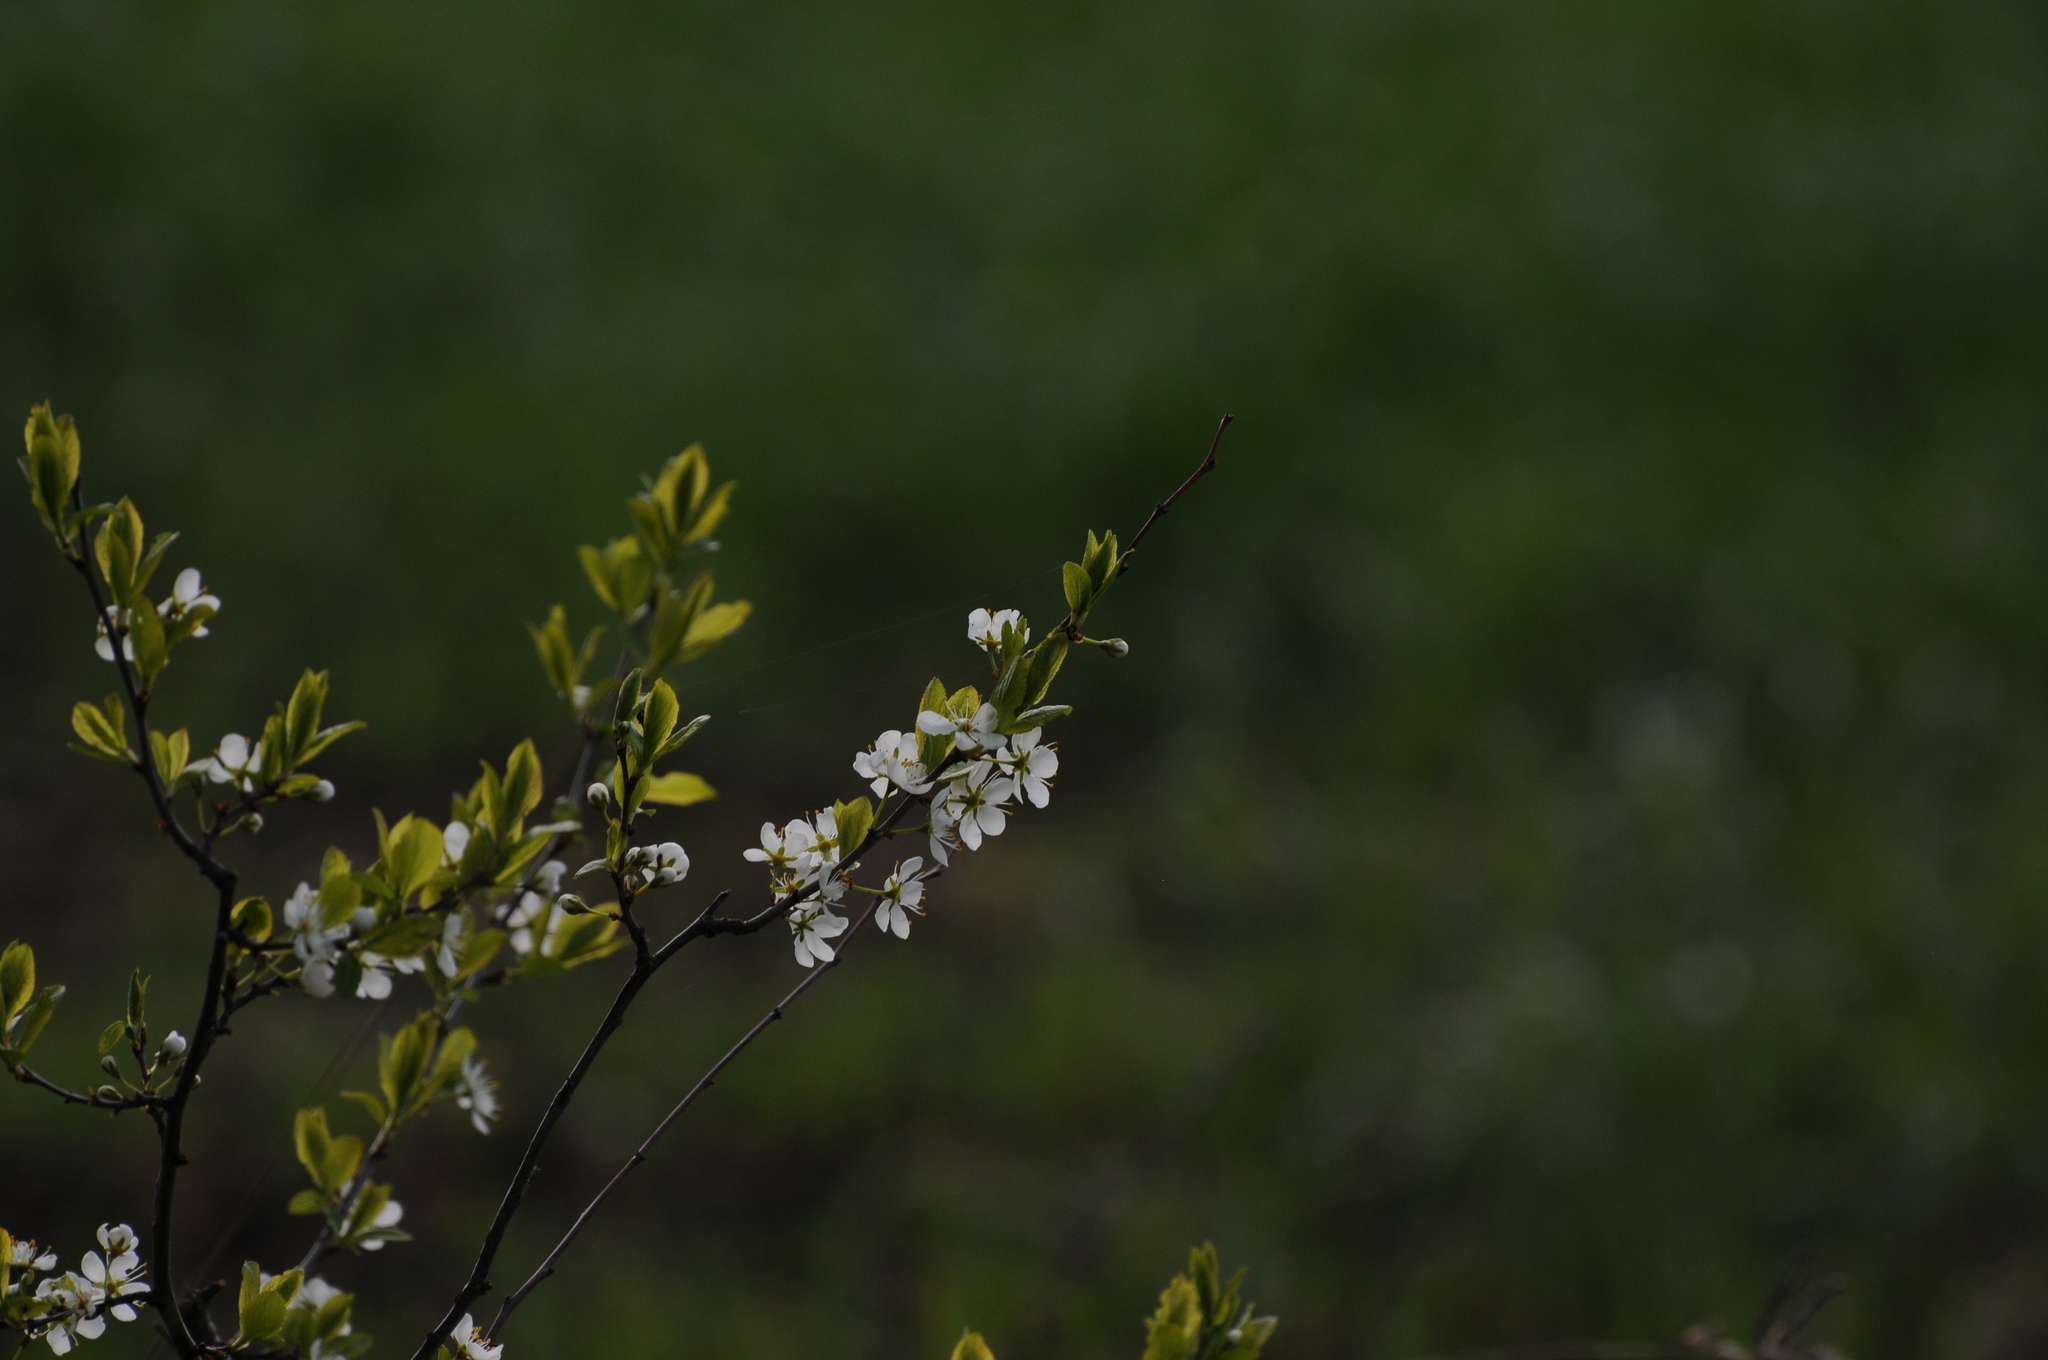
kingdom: Plantae
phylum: Tracheophyta
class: Magnoliopsida
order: Rosales
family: Rosaceae
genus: Prunus
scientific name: Prunus spinosa
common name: Blackthorn
